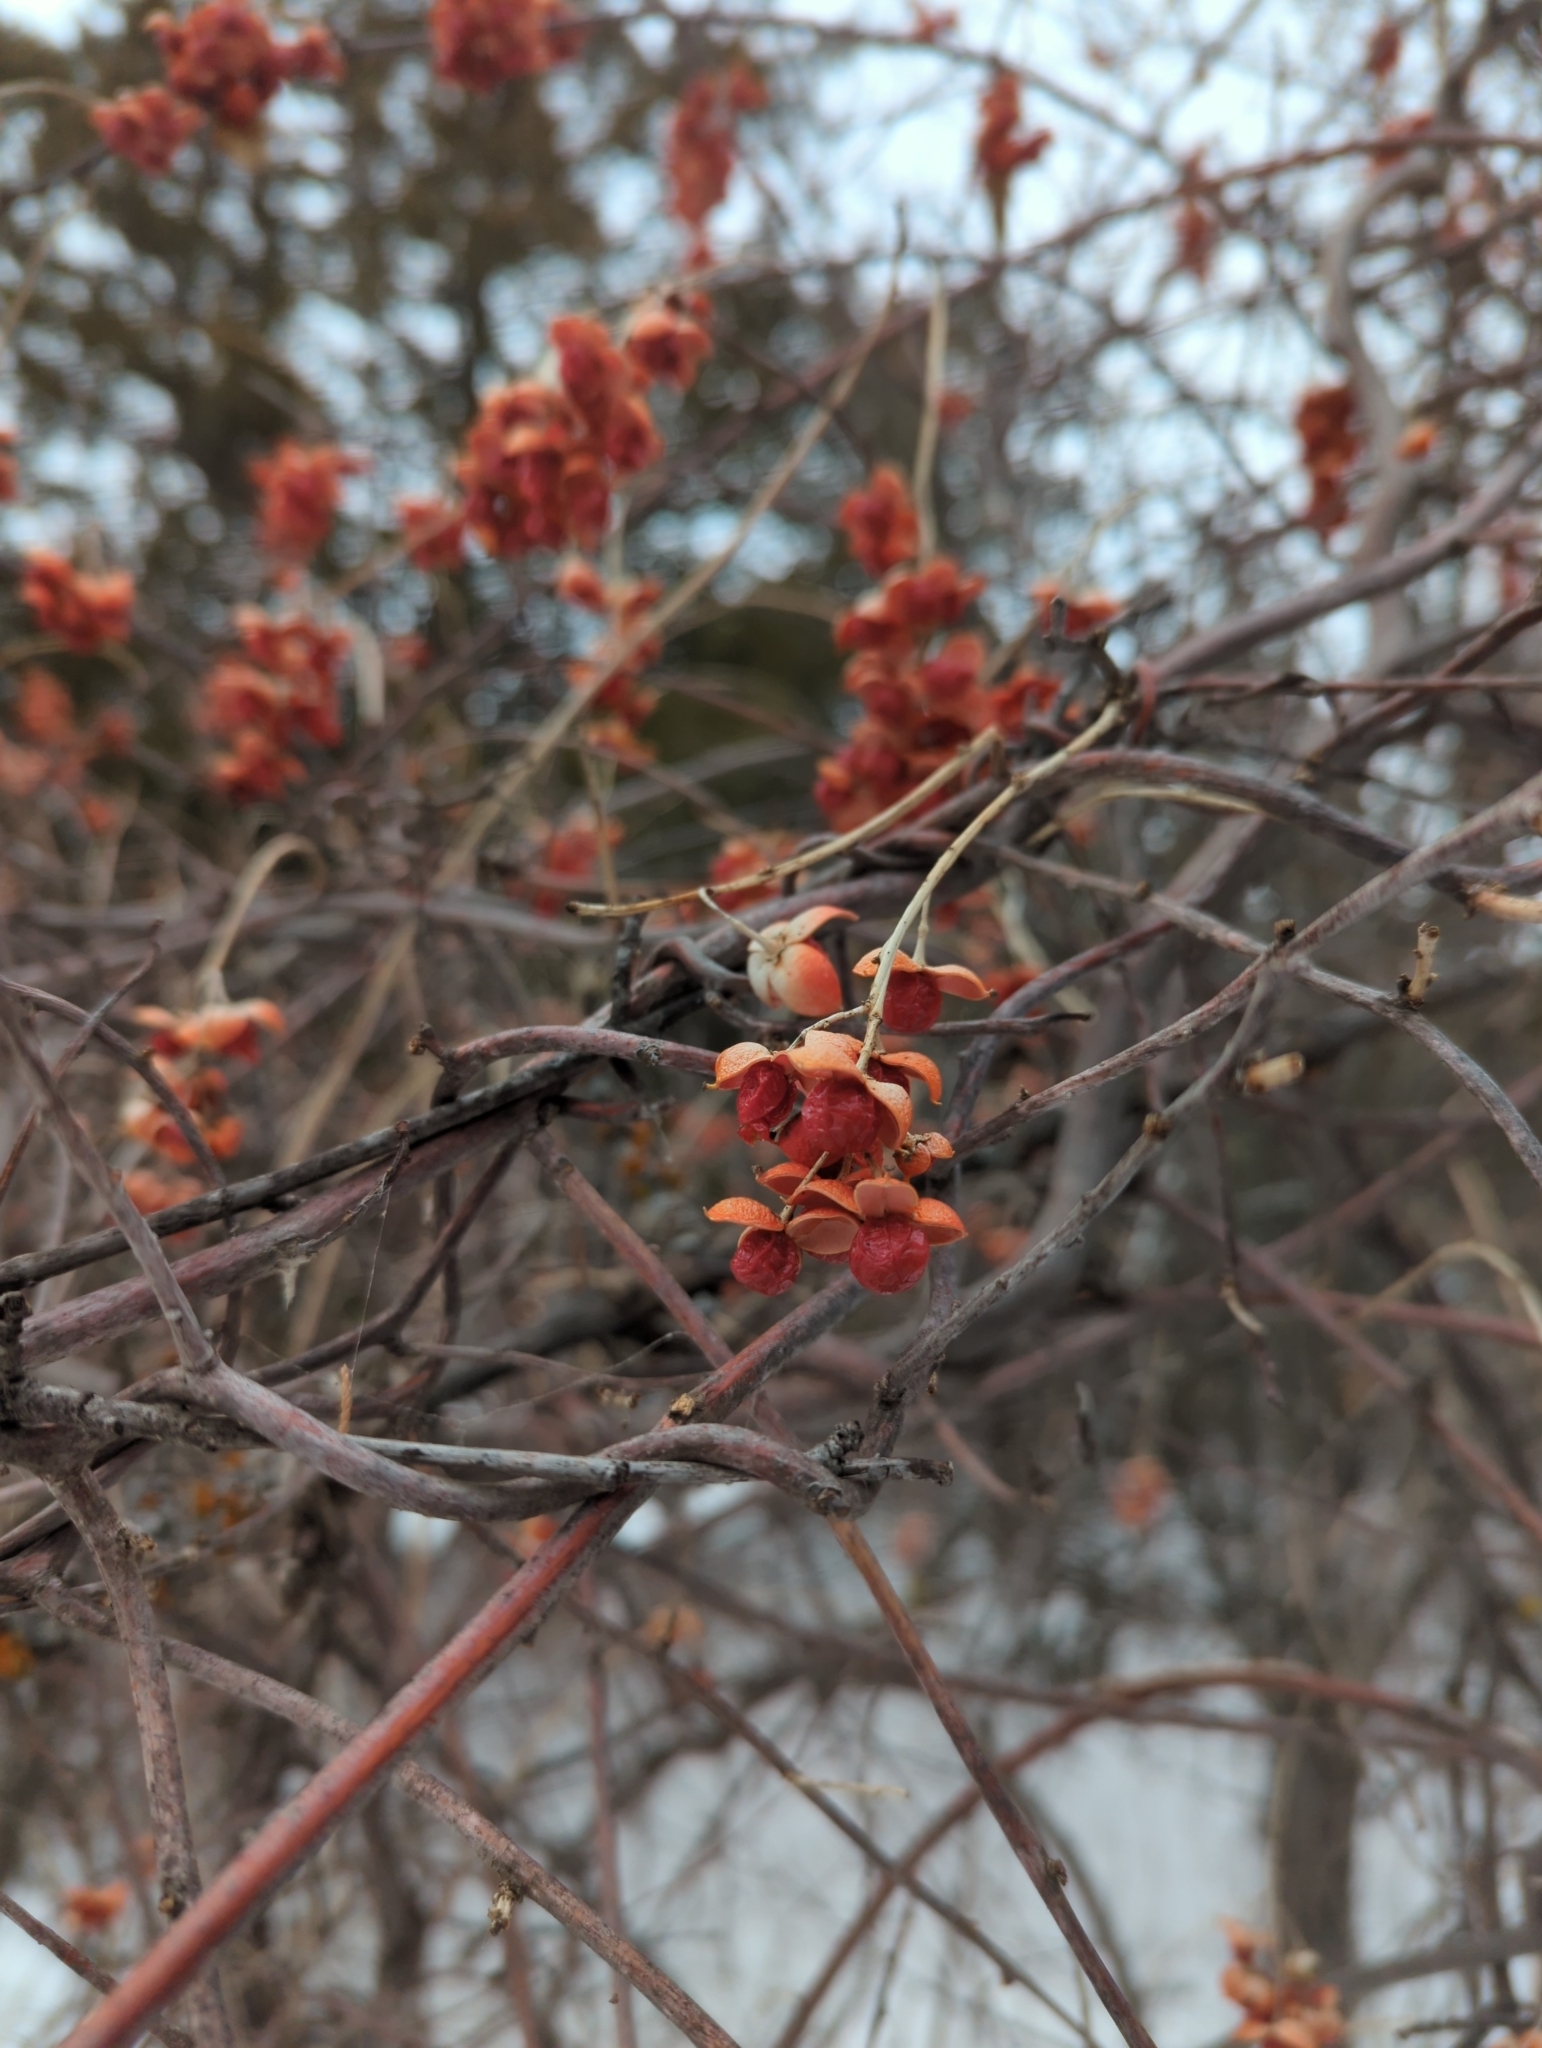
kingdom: Plantae
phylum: Tracheophyta
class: Magnoliopsida
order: Celastrales
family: Celastraceae
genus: Celastrus
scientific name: Celastrus scandens
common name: American bittersweet
